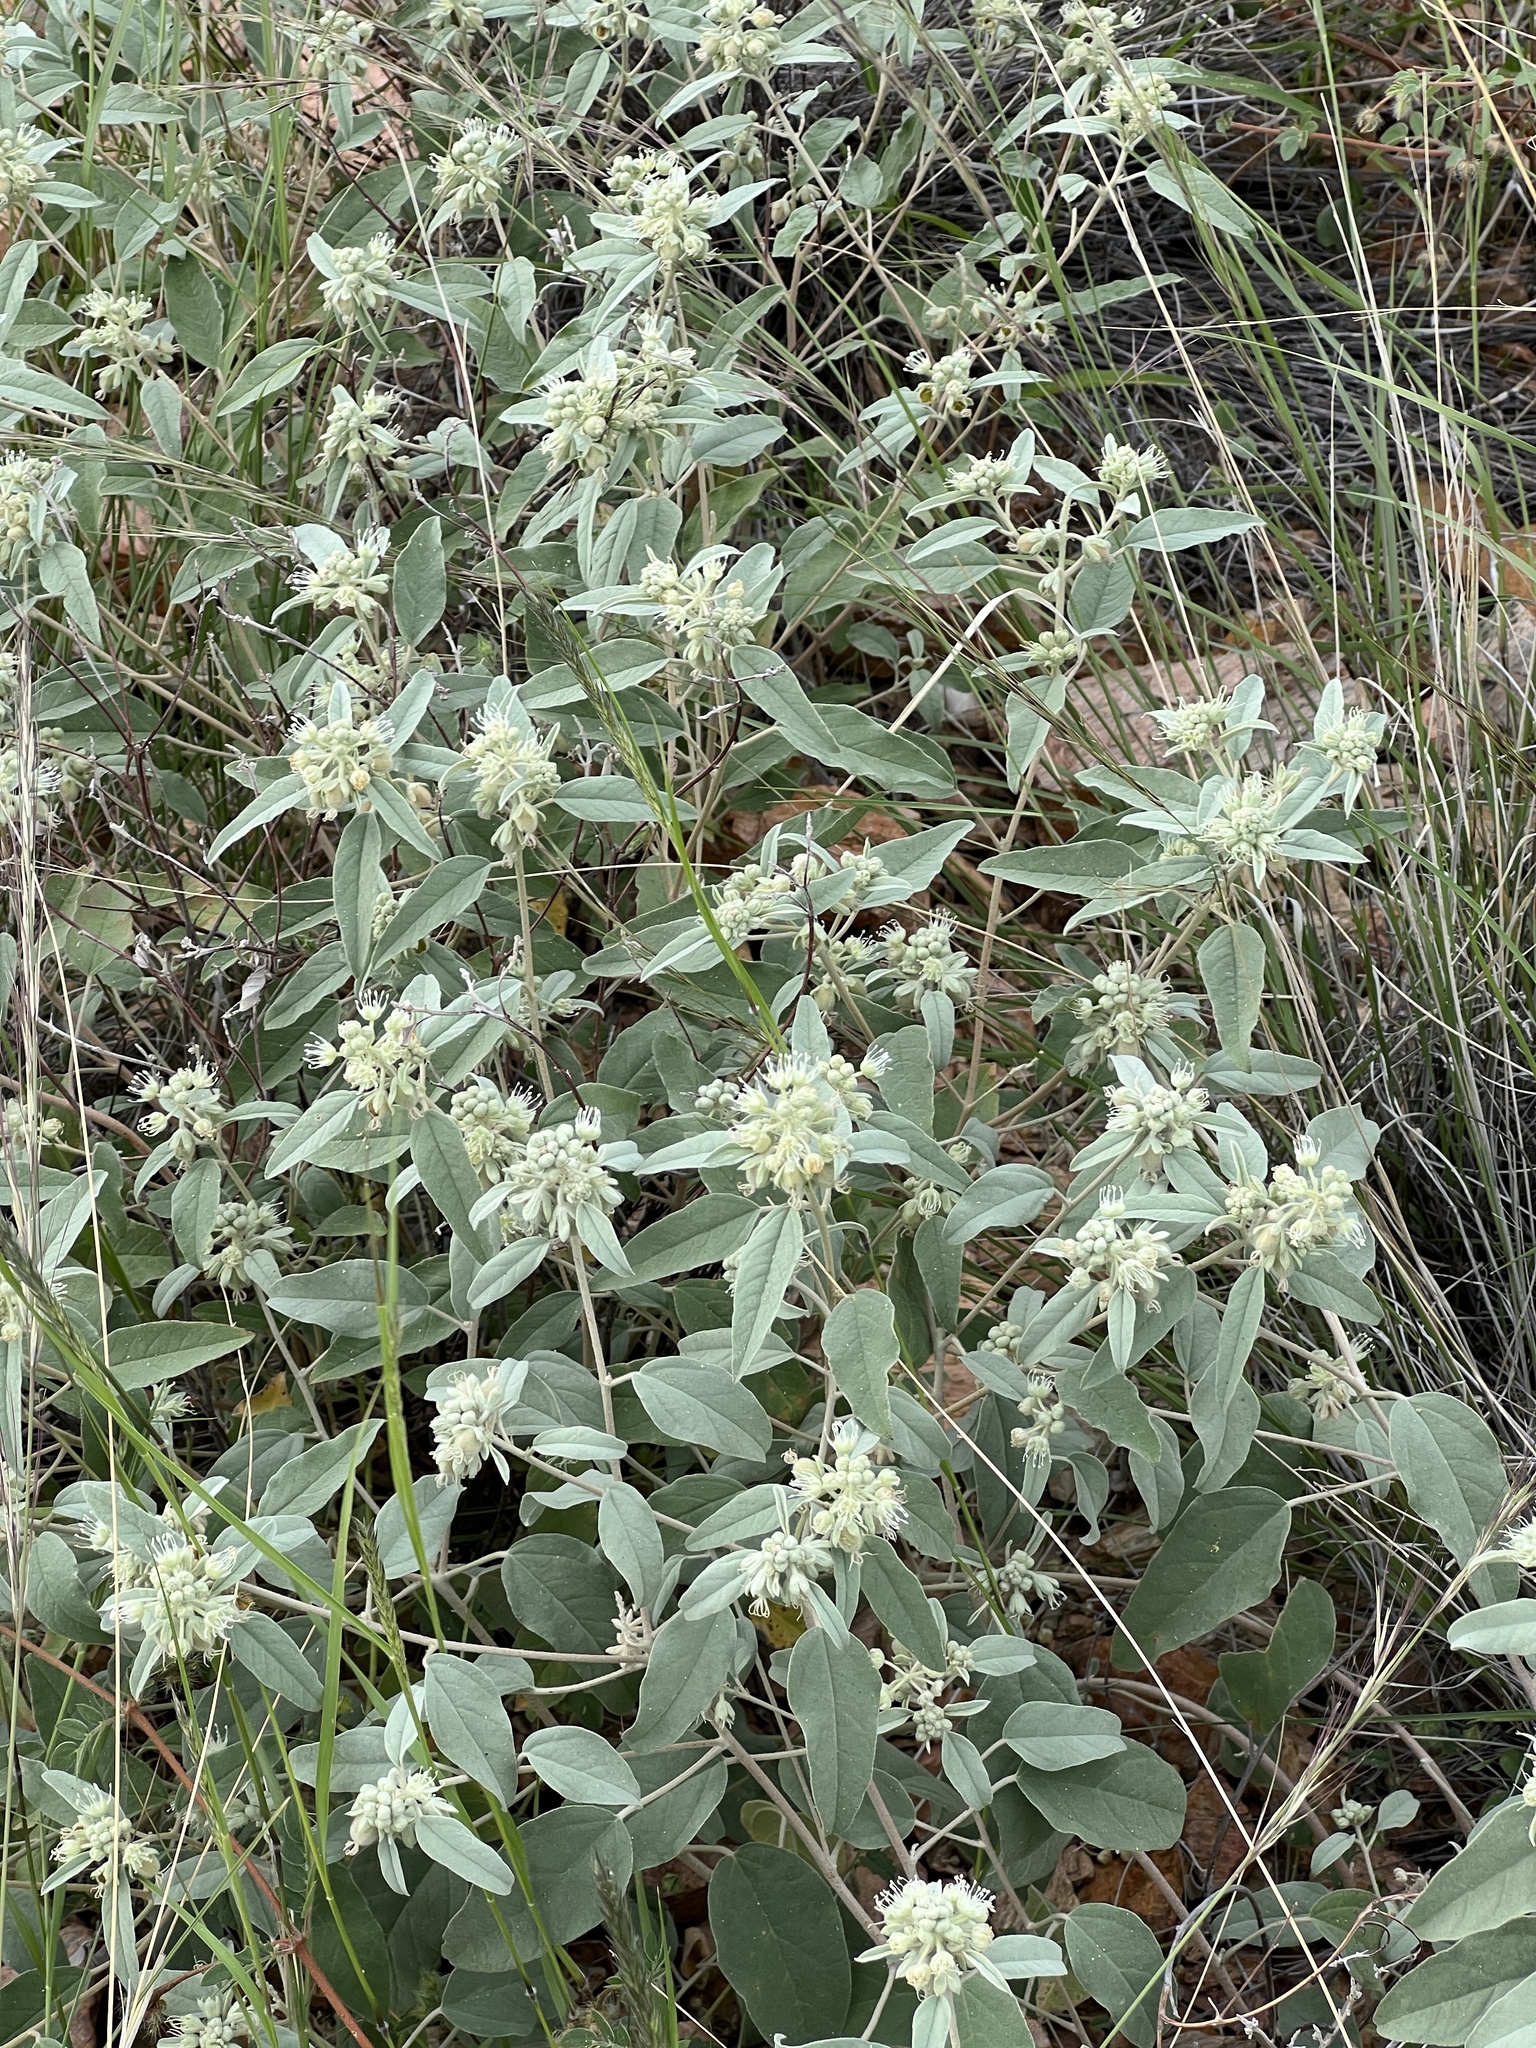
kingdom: Plantae
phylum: Tracheophyta
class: Magnoliopsida
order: Malpighiales
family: Euphorbiaceae
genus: Croton
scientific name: Croton pottsii
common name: Leatherweed
